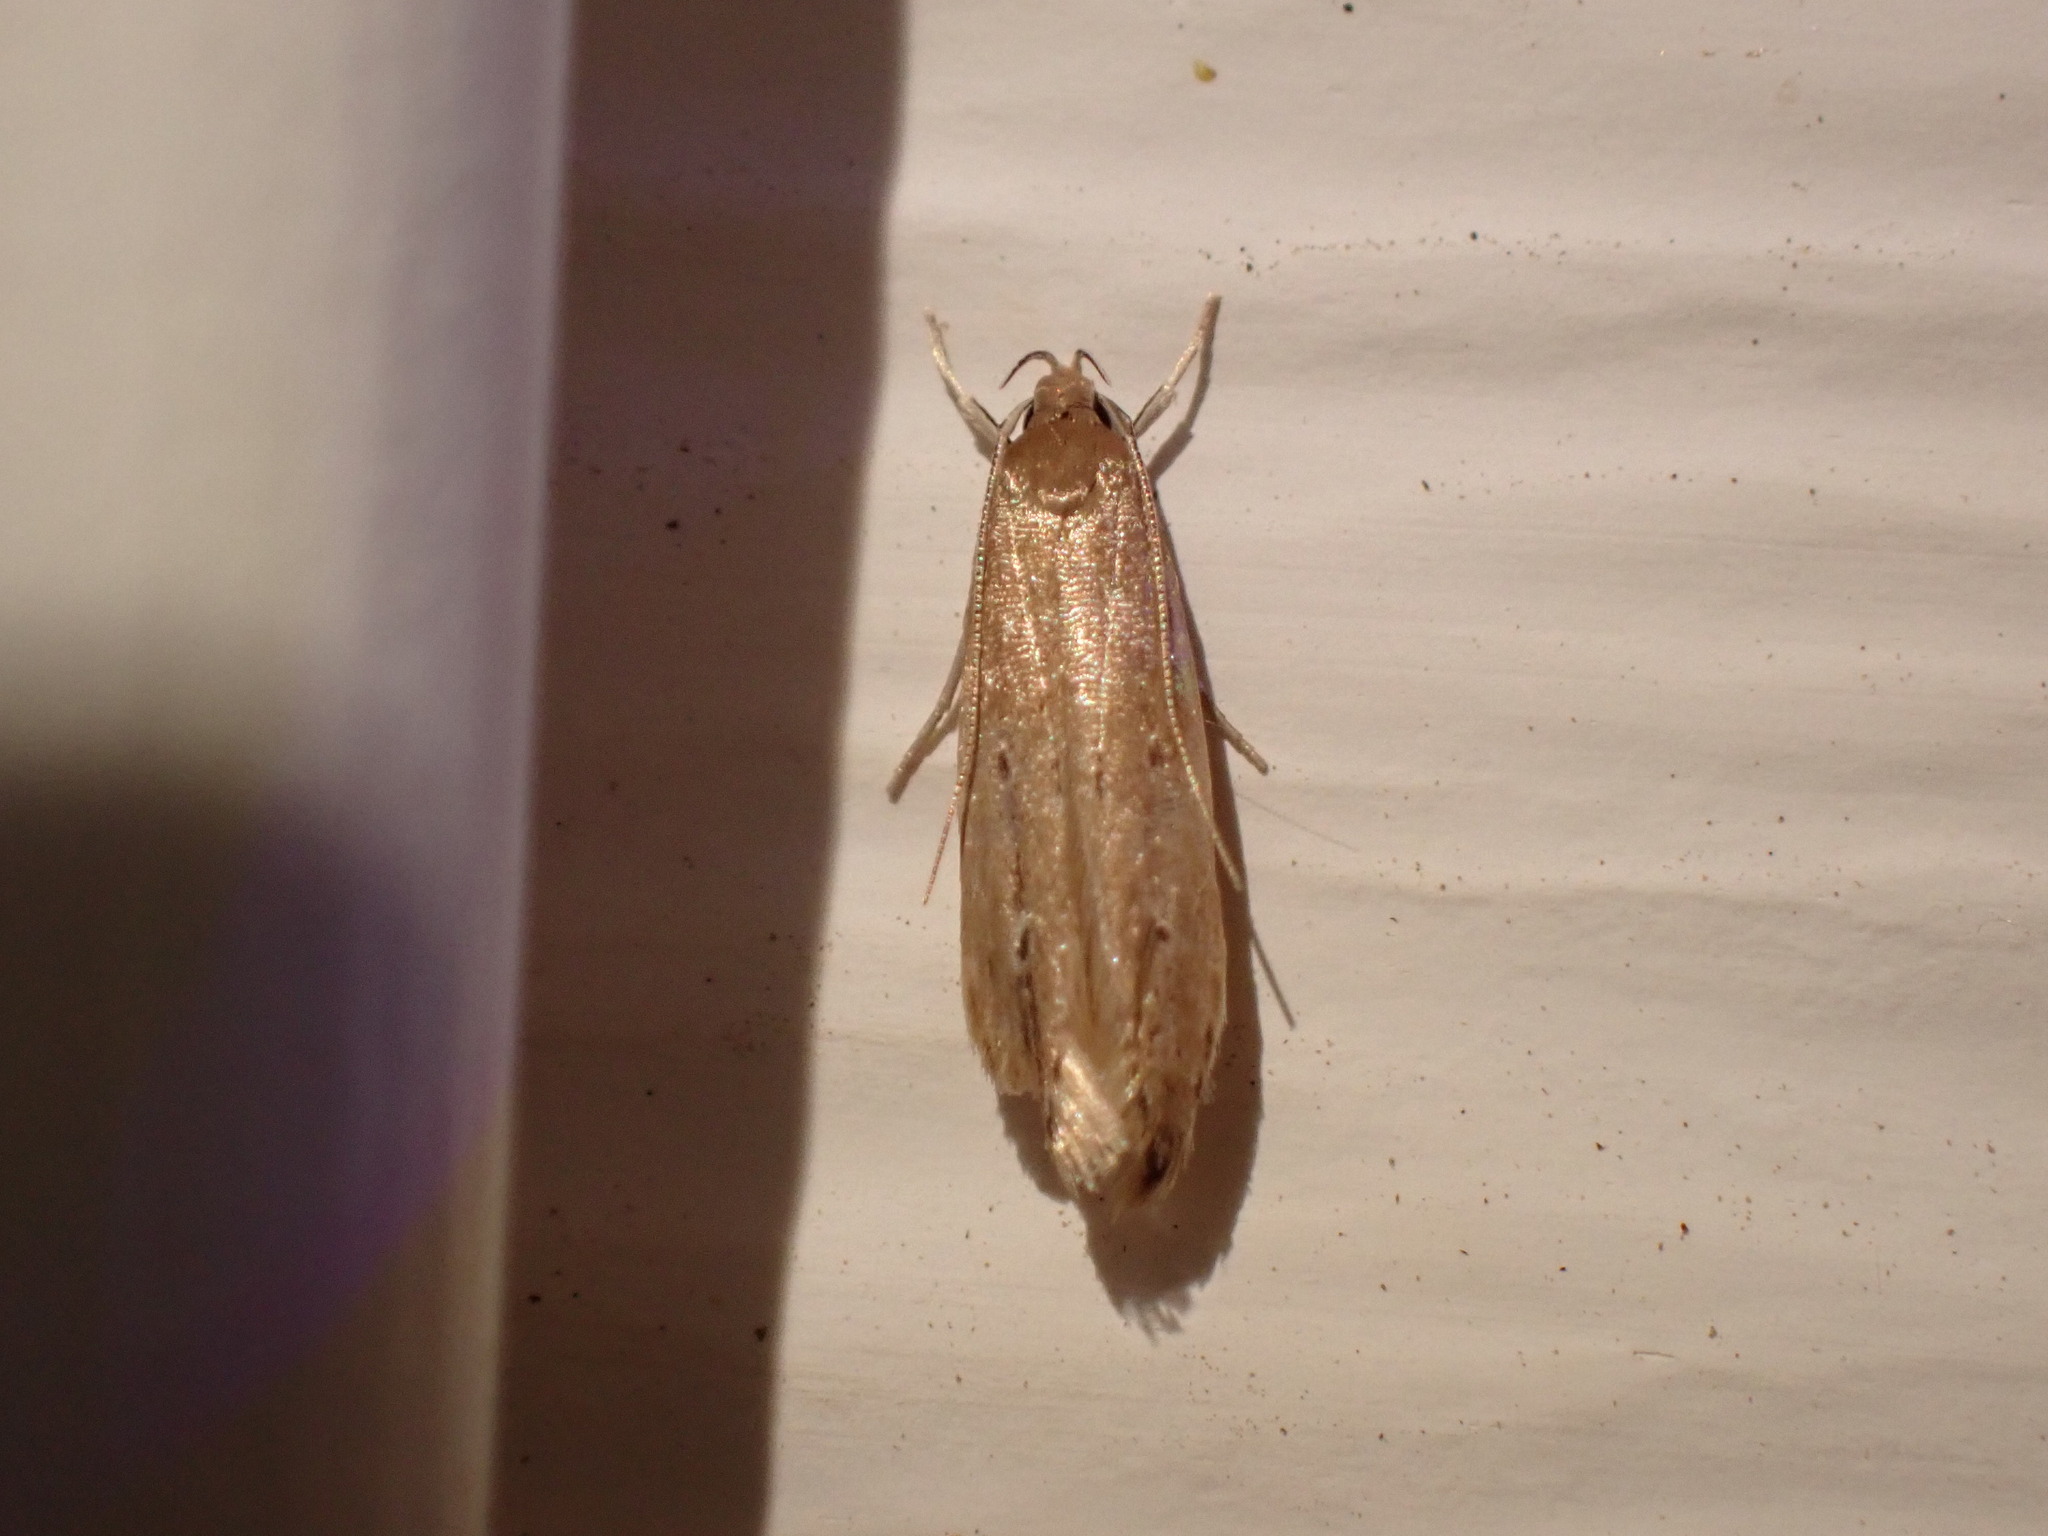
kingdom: Animalia
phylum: Arthropoda
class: Insecta
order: Lepidoptera
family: Cosmopterigidae
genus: Limnaecia
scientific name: Limnaecia phragmitella
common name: Bulrush cosmet
